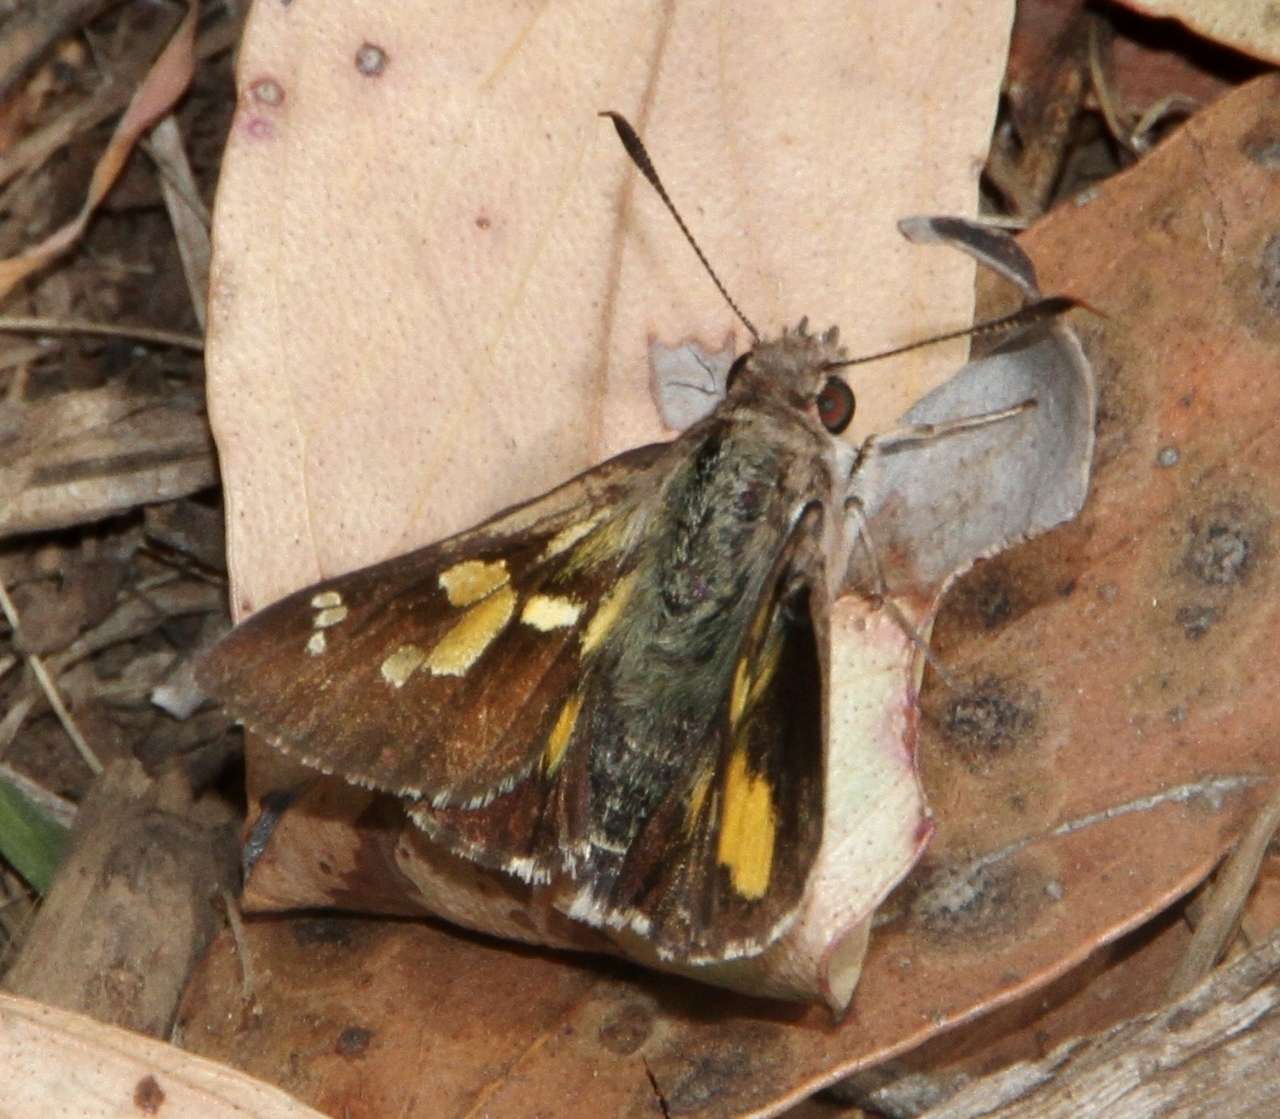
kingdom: Animalia
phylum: Arthropoda
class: Insecta
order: Lepidoptera
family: Hesperiidae
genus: Trapezites
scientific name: Trapezites phigalioides
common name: Montane ochre
